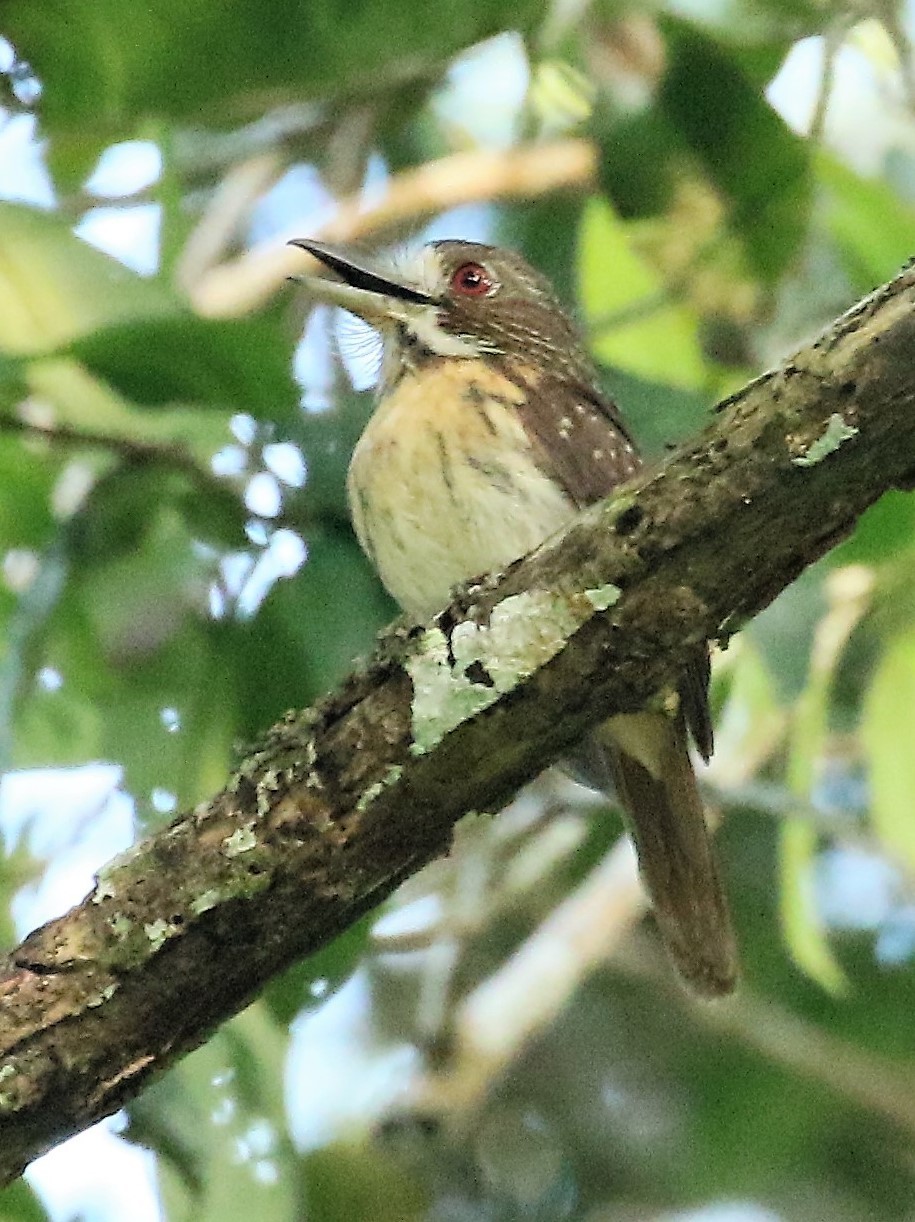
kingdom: Animalia
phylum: Chordata
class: Aves
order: Piciformes
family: Bucconidae
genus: Malacoptila
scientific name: Malacoptila panamensis
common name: White-whiskered puffbird
